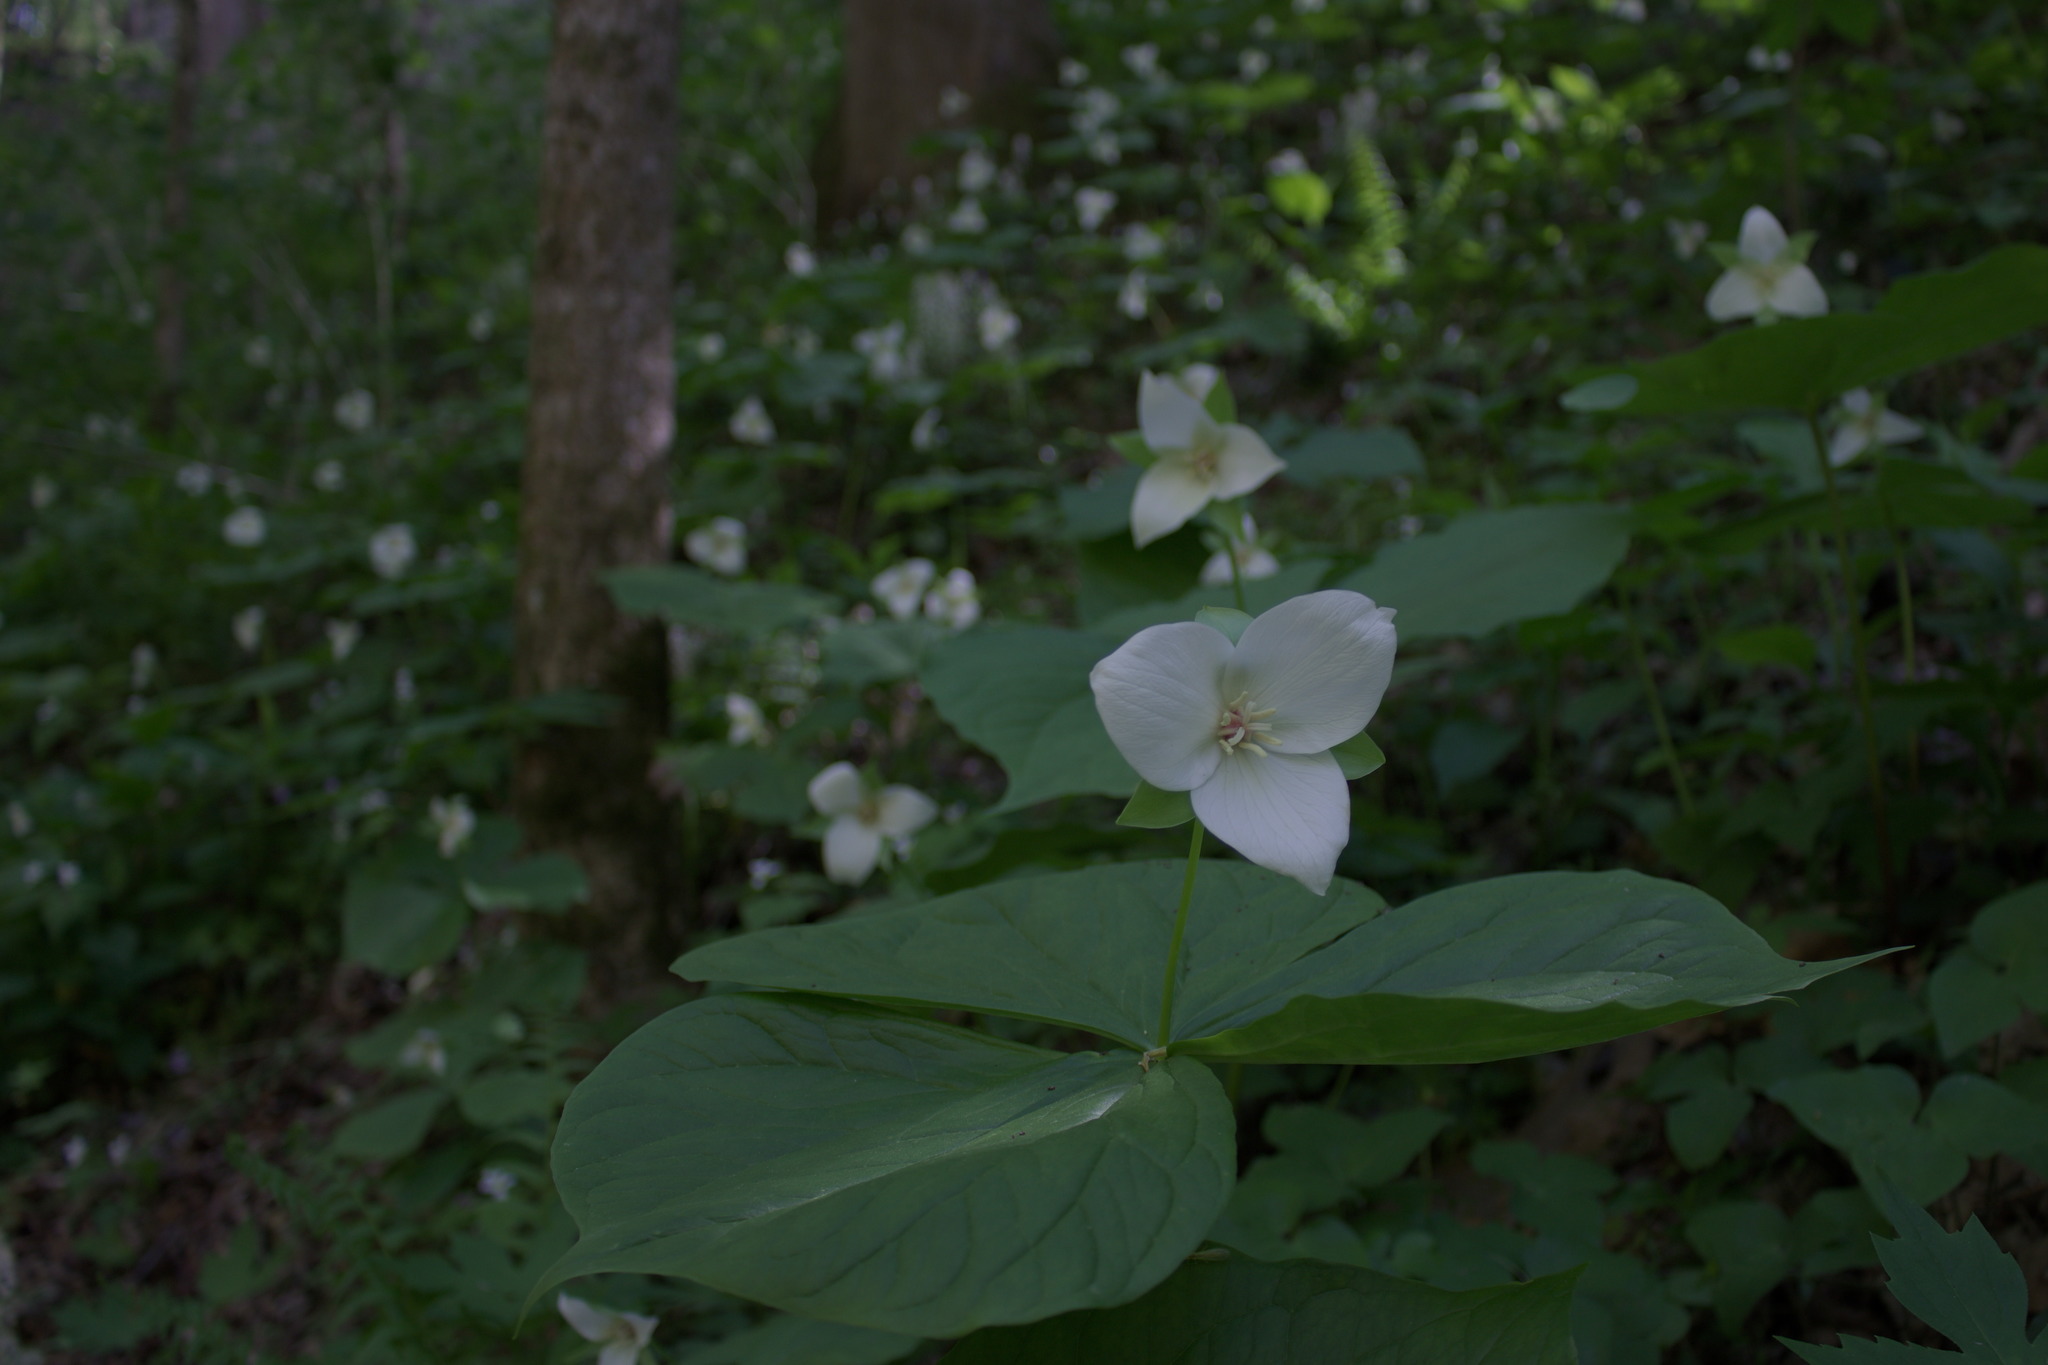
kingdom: Plantae
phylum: Tracheophyta
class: Liliopsida
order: Liliales
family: Melanthiaceae
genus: Trillium
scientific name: Trillium flexipes
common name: Drooping trillium
